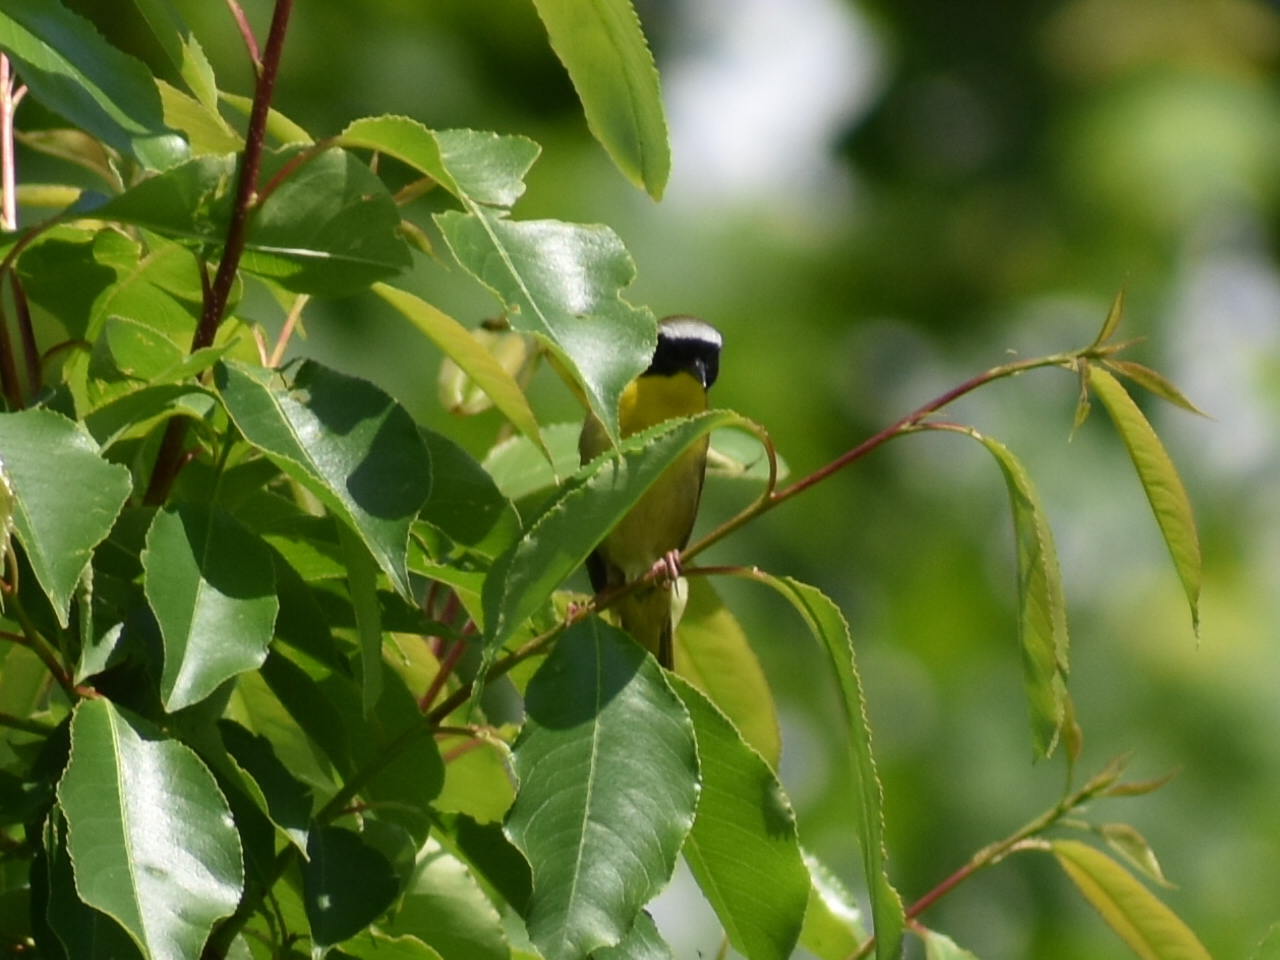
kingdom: Animalia
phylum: Chordata
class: Aves
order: Passeriformes
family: Parulidae
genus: Geothlypis
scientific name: Geothlypis trichas
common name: Common yellowthroat
